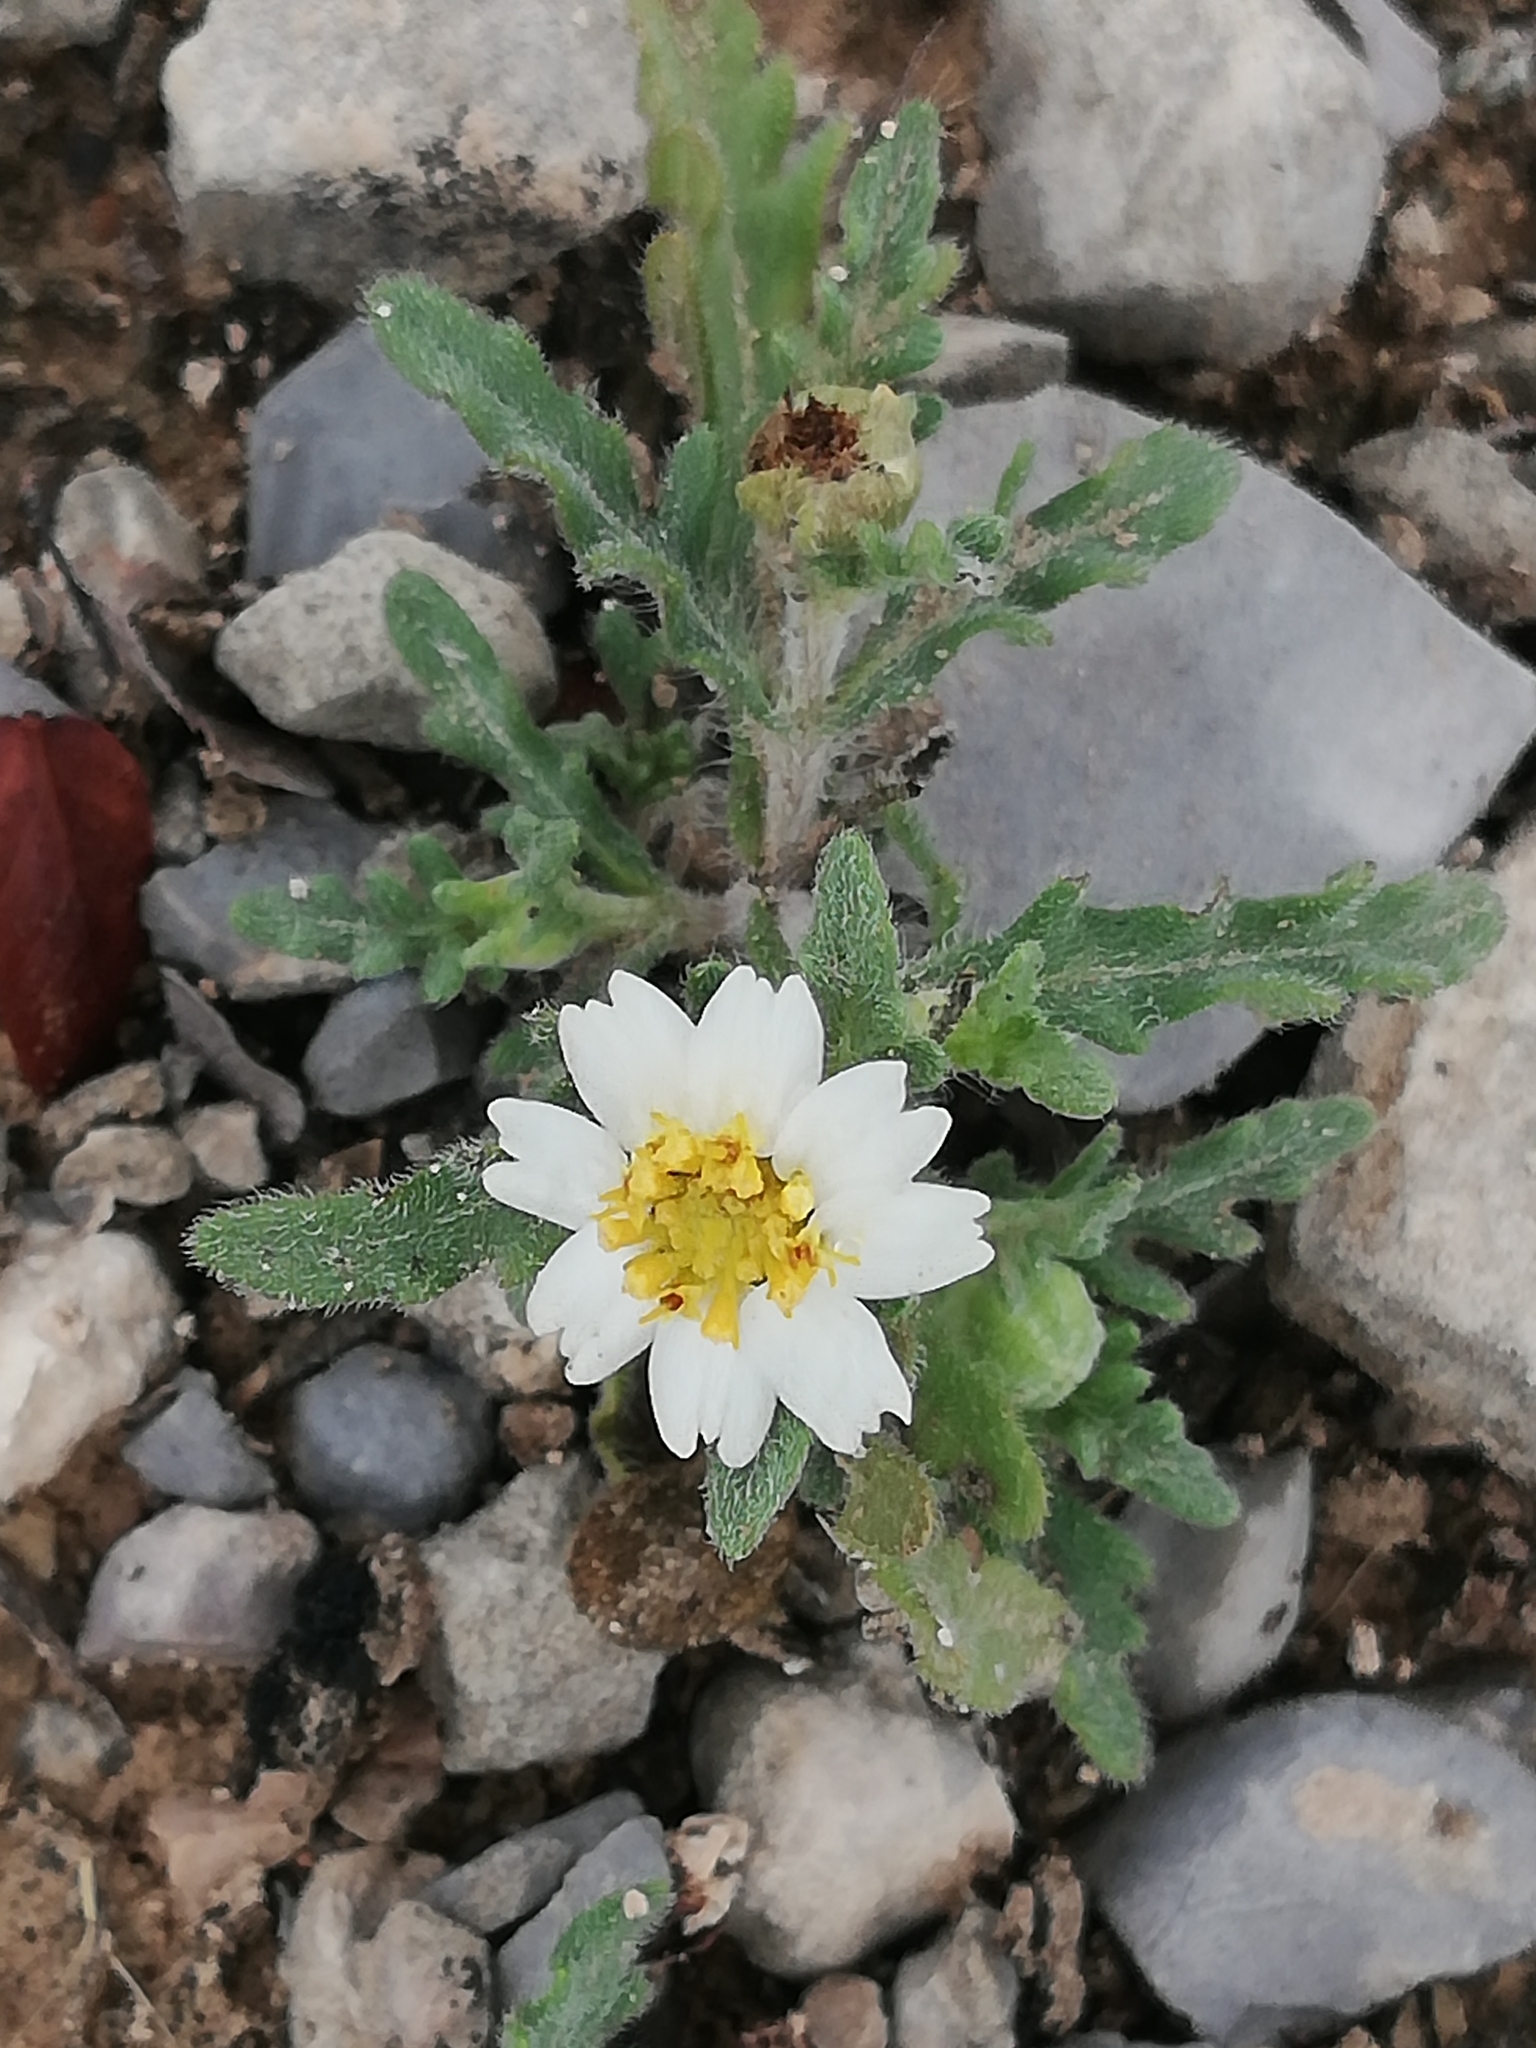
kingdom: Plantae
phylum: Tracheophyta
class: Magnoliopsida
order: Asterales
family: Asteraceae
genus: Melampodium
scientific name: Melampodium cinereum
